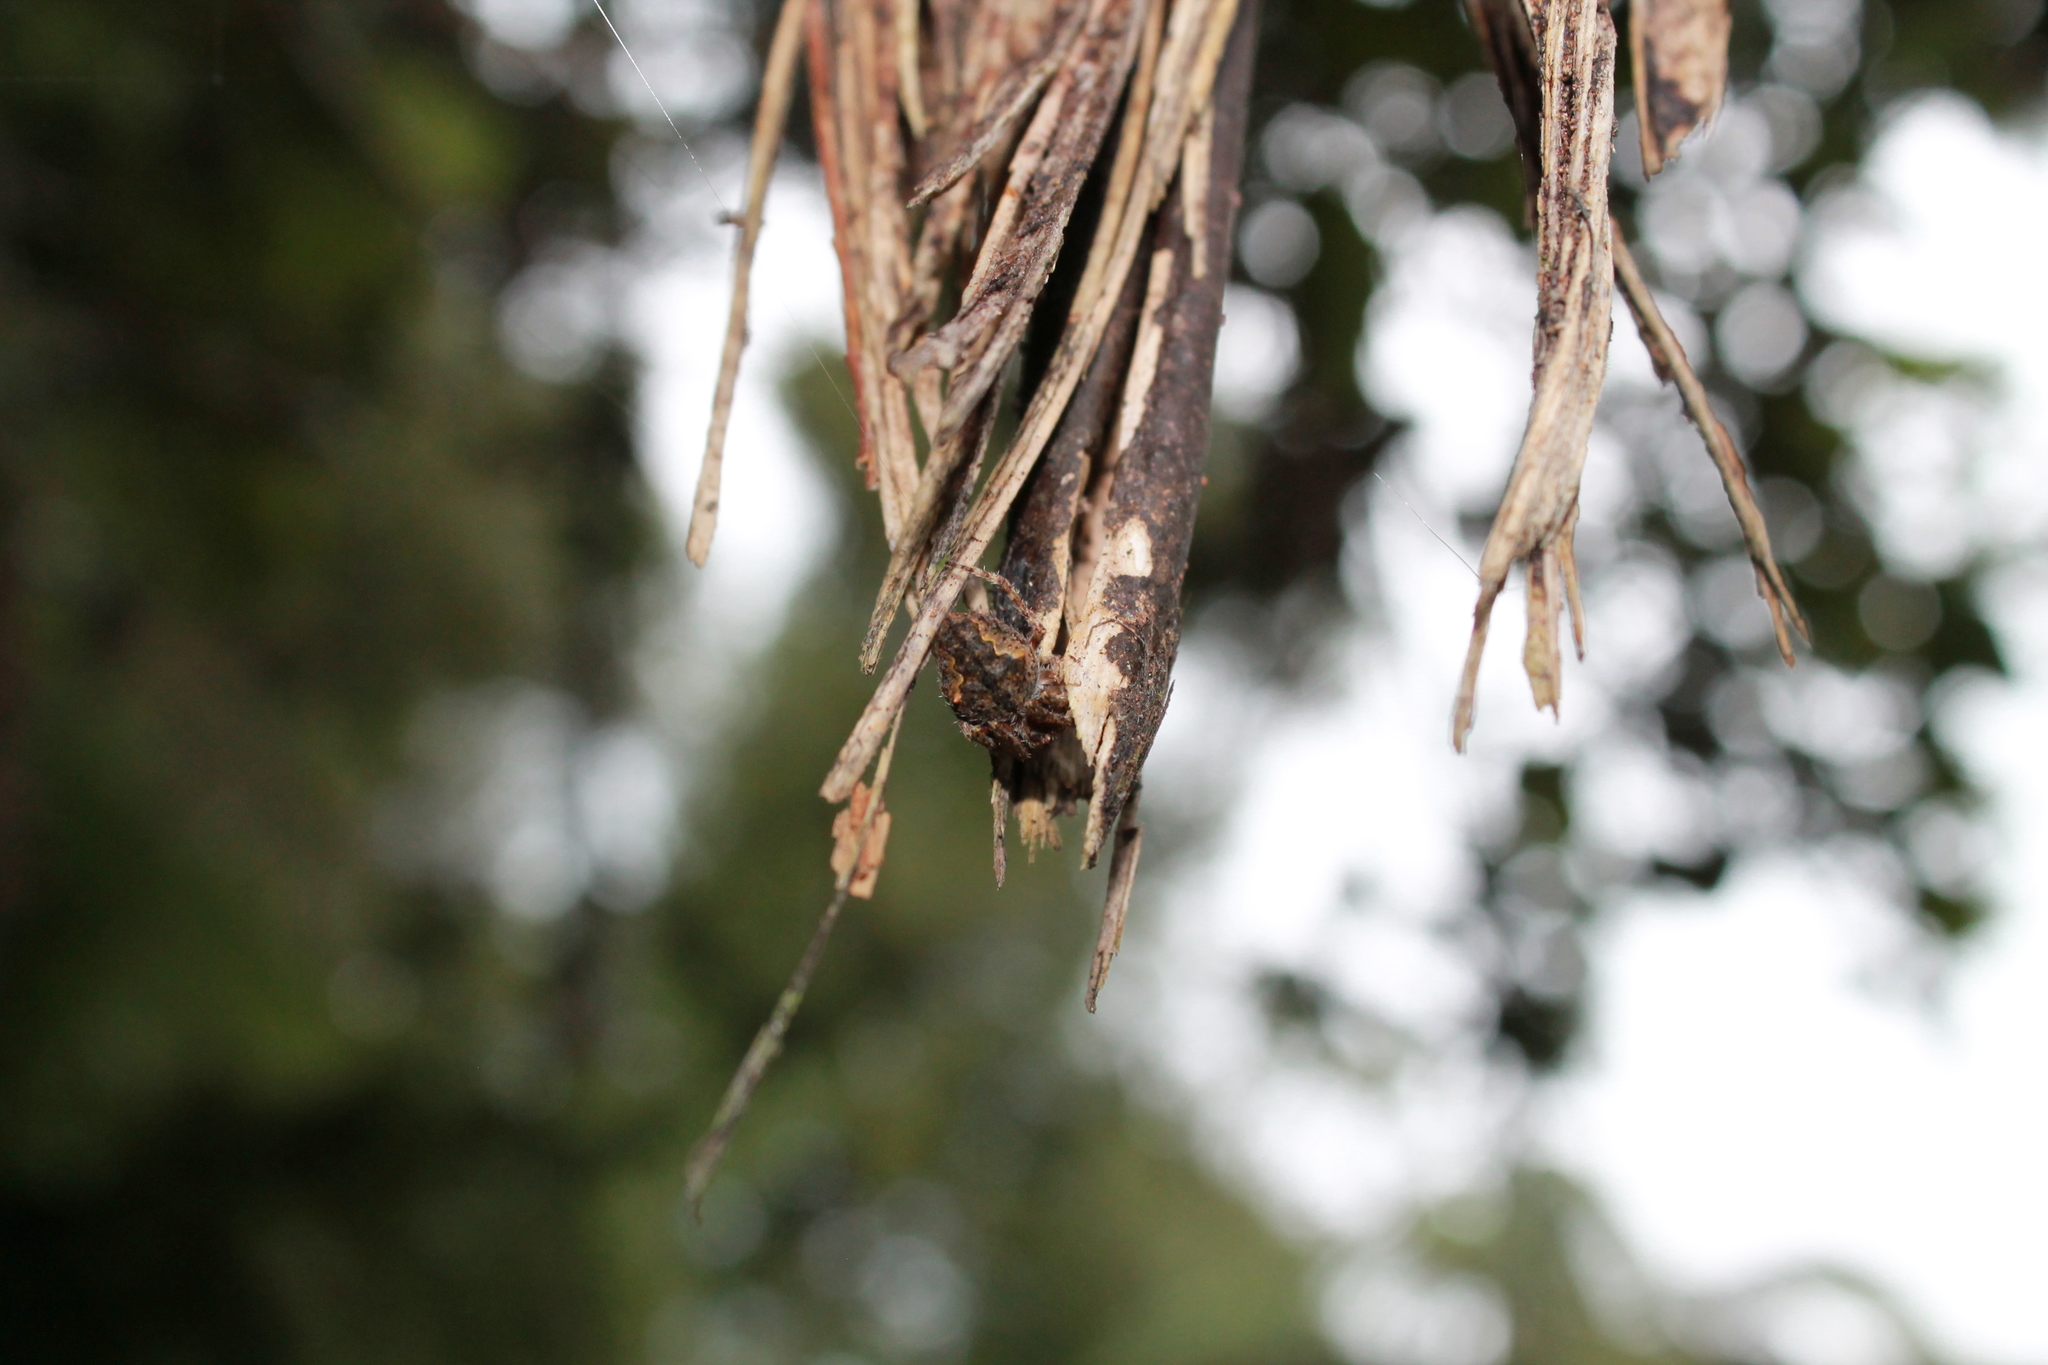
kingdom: Animalia
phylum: Arthropoda
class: Arachnida
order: Araneae
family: Araneidae
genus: Eriophora
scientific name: Eriophora pustulosa
